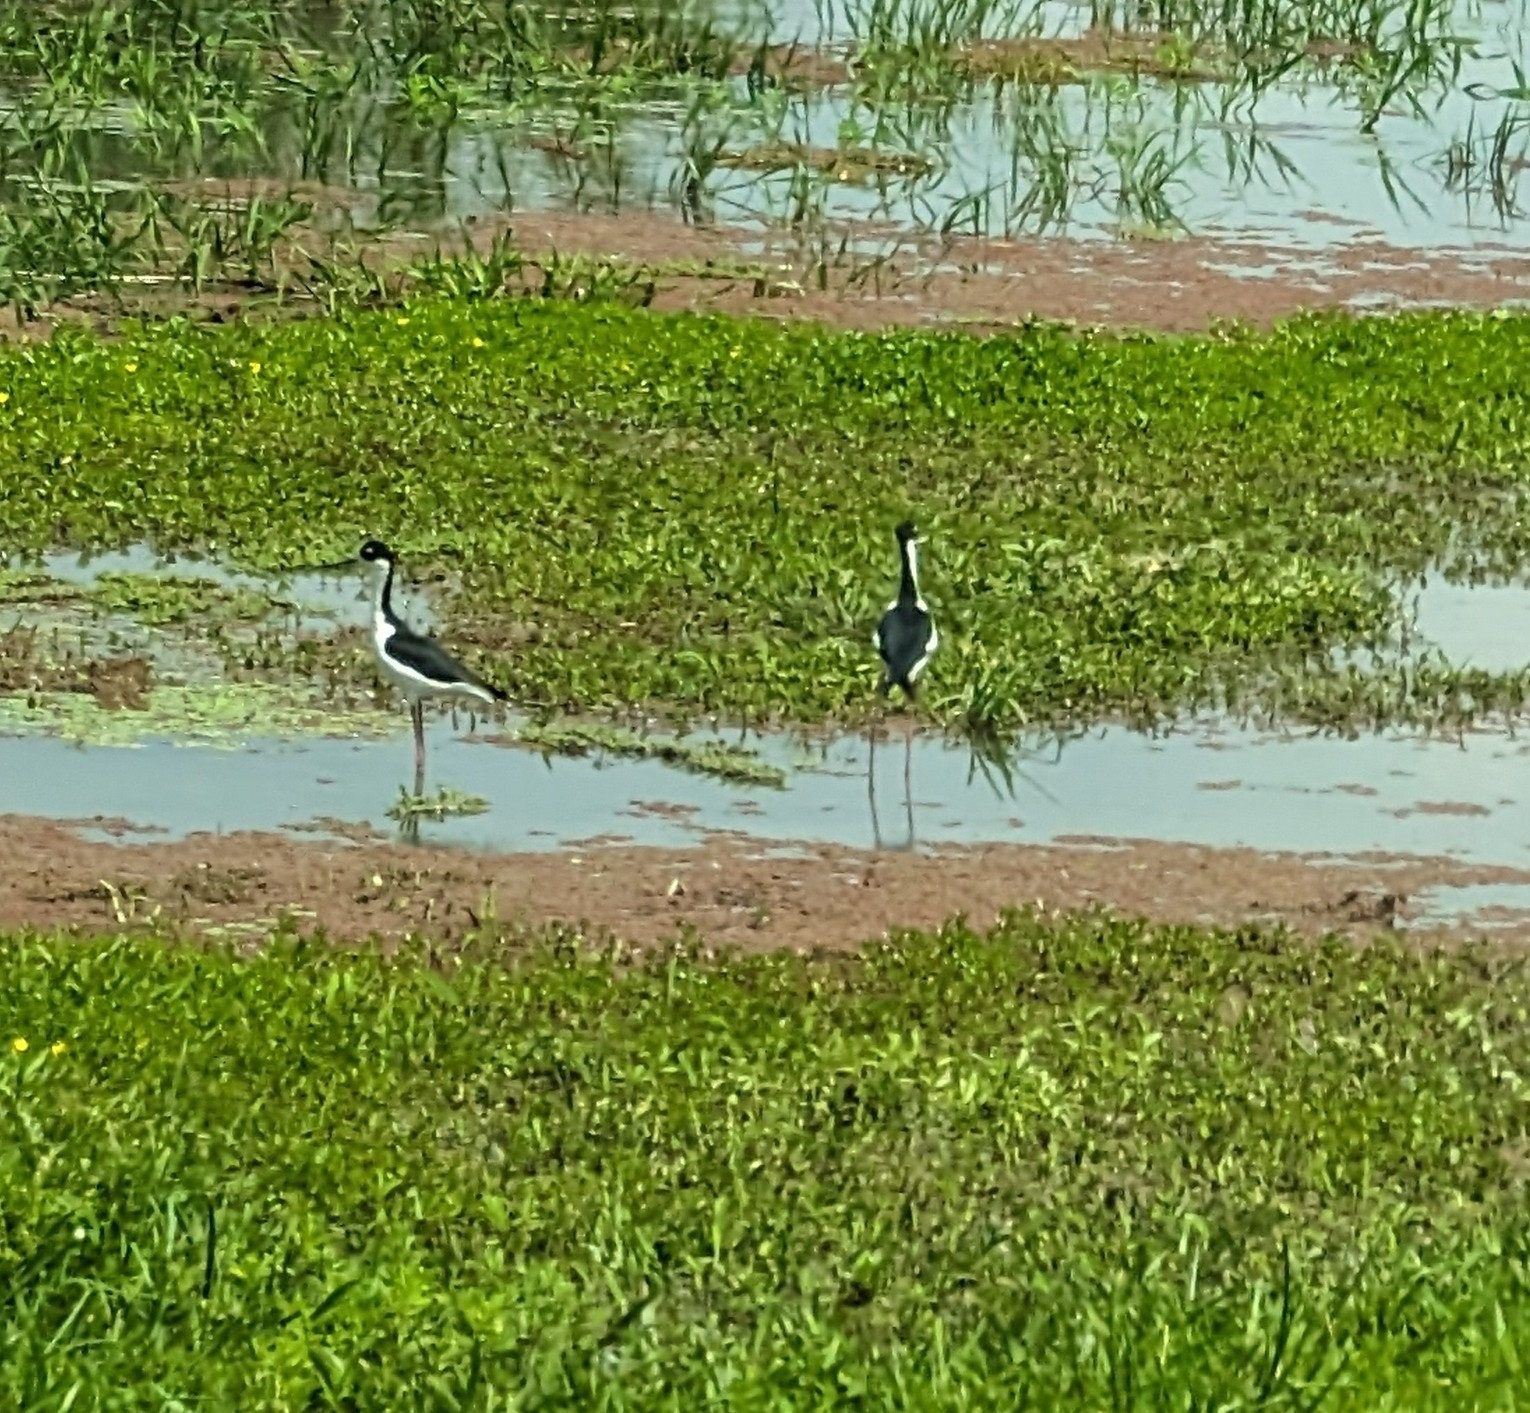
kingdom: Animalia
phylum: Chordata
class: Aves
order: Charadriiformes
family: Recurvirostridae
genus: Himantopus
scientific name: Himantopus mexicanus
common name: Black-necked stilt
